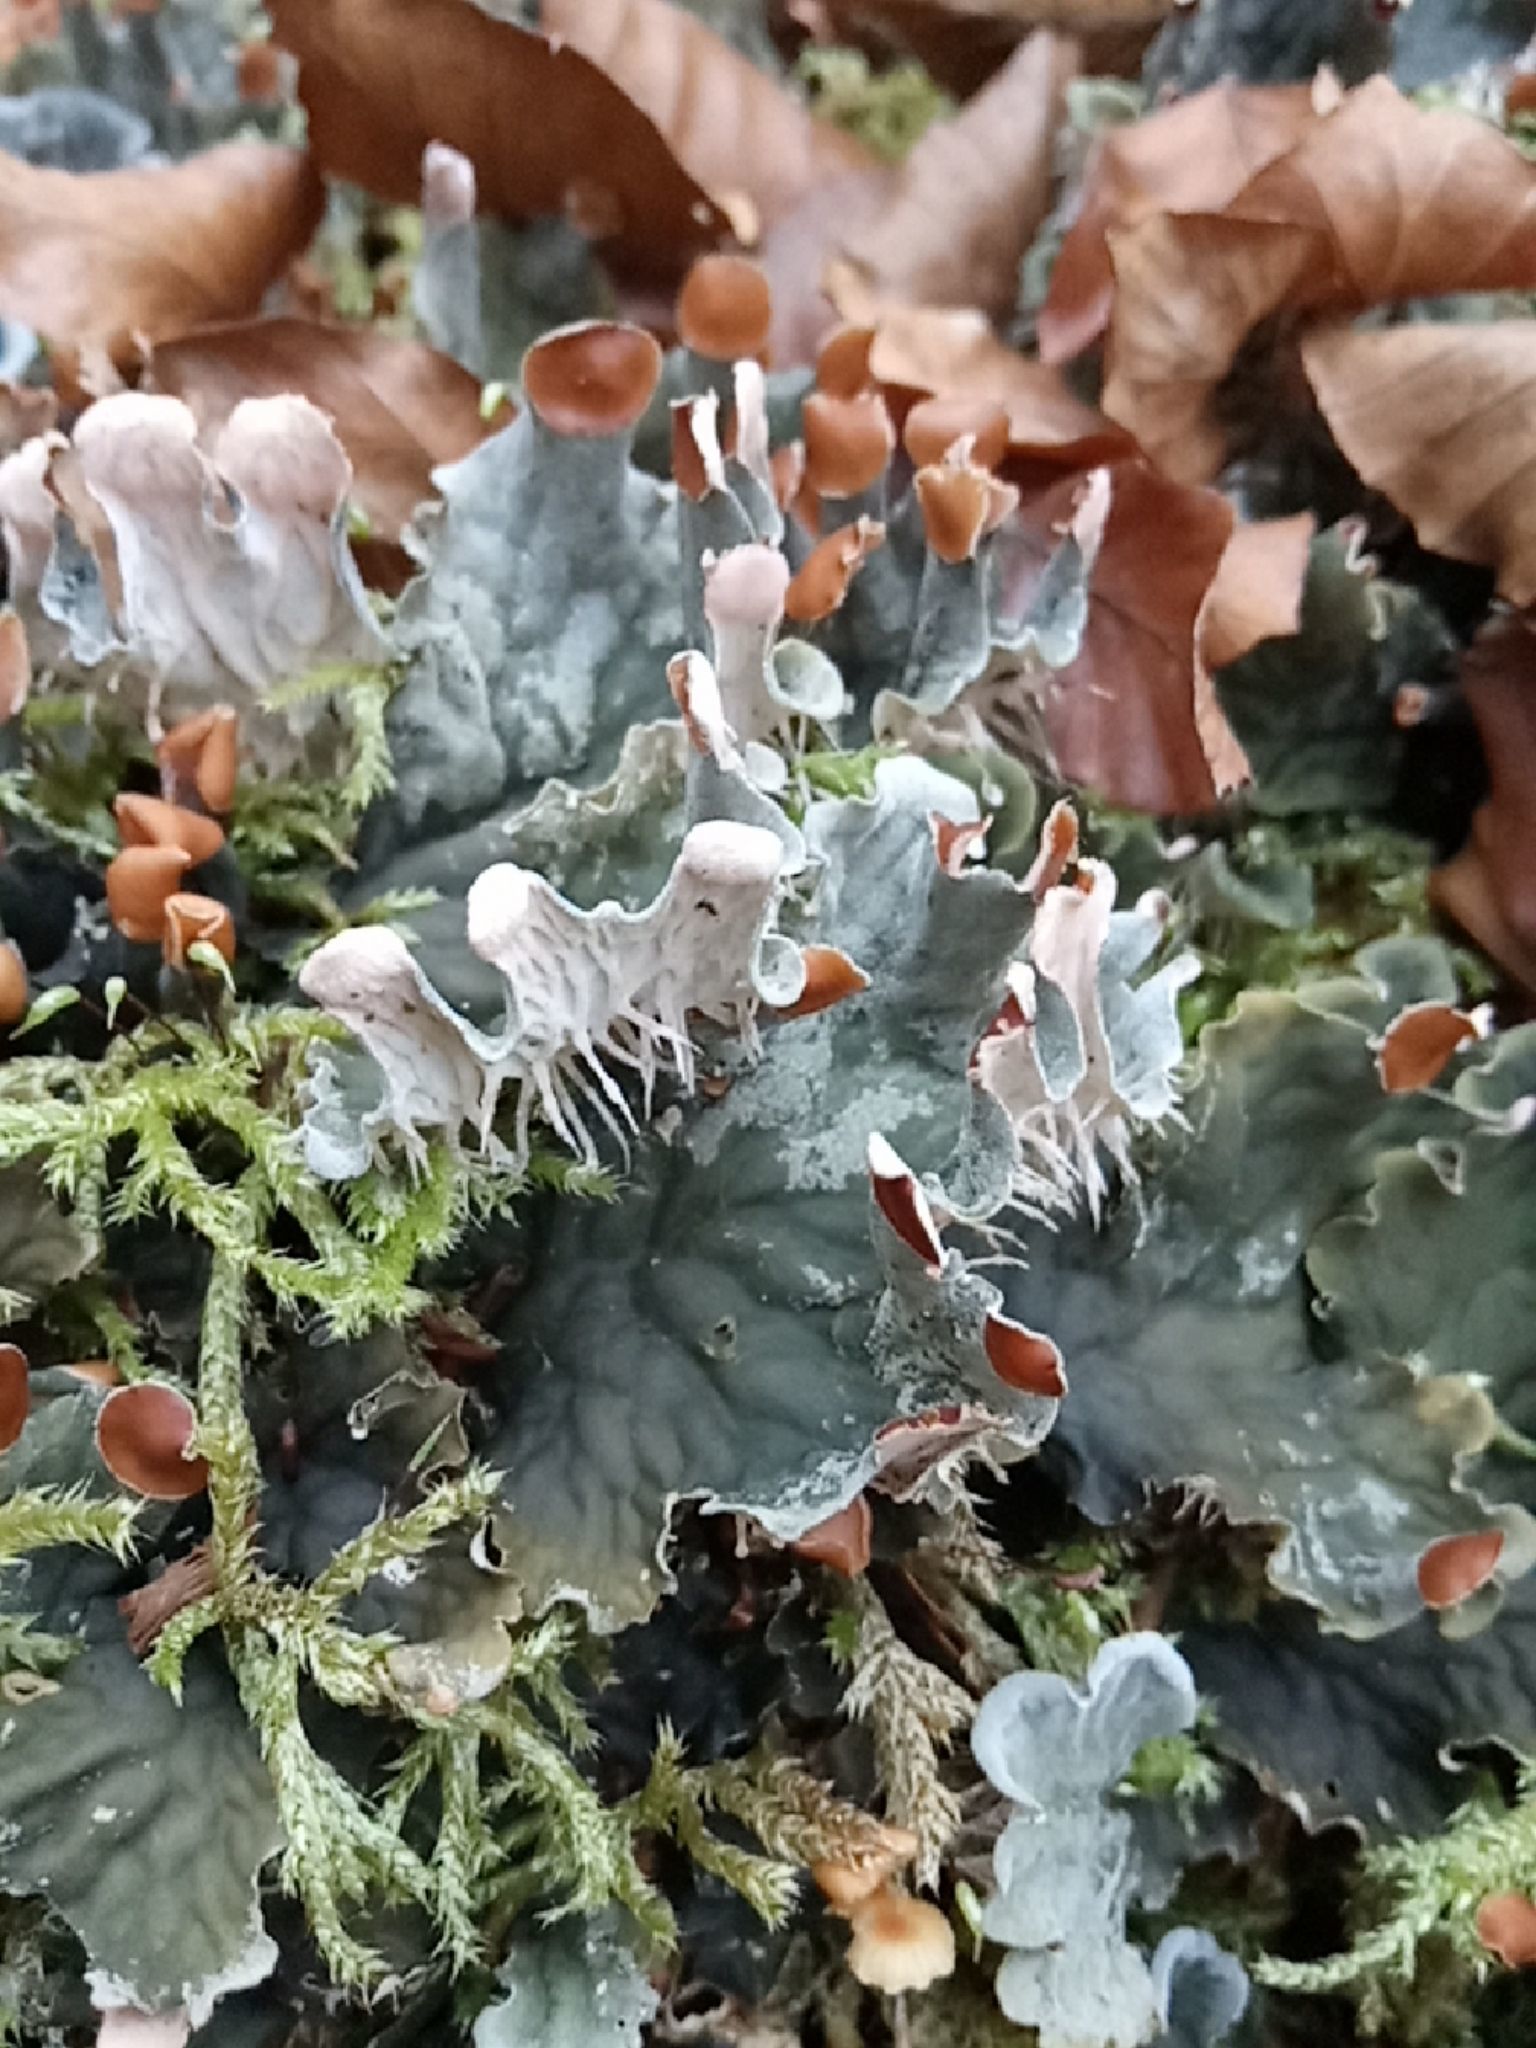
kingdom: Fungi
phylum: Ascomycota
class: Lecanoromycetes
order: Peltigerales
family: Peltigeraceae
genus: Peltigera
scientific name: Peltigera membranacea
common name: Membranous pelt lichen
